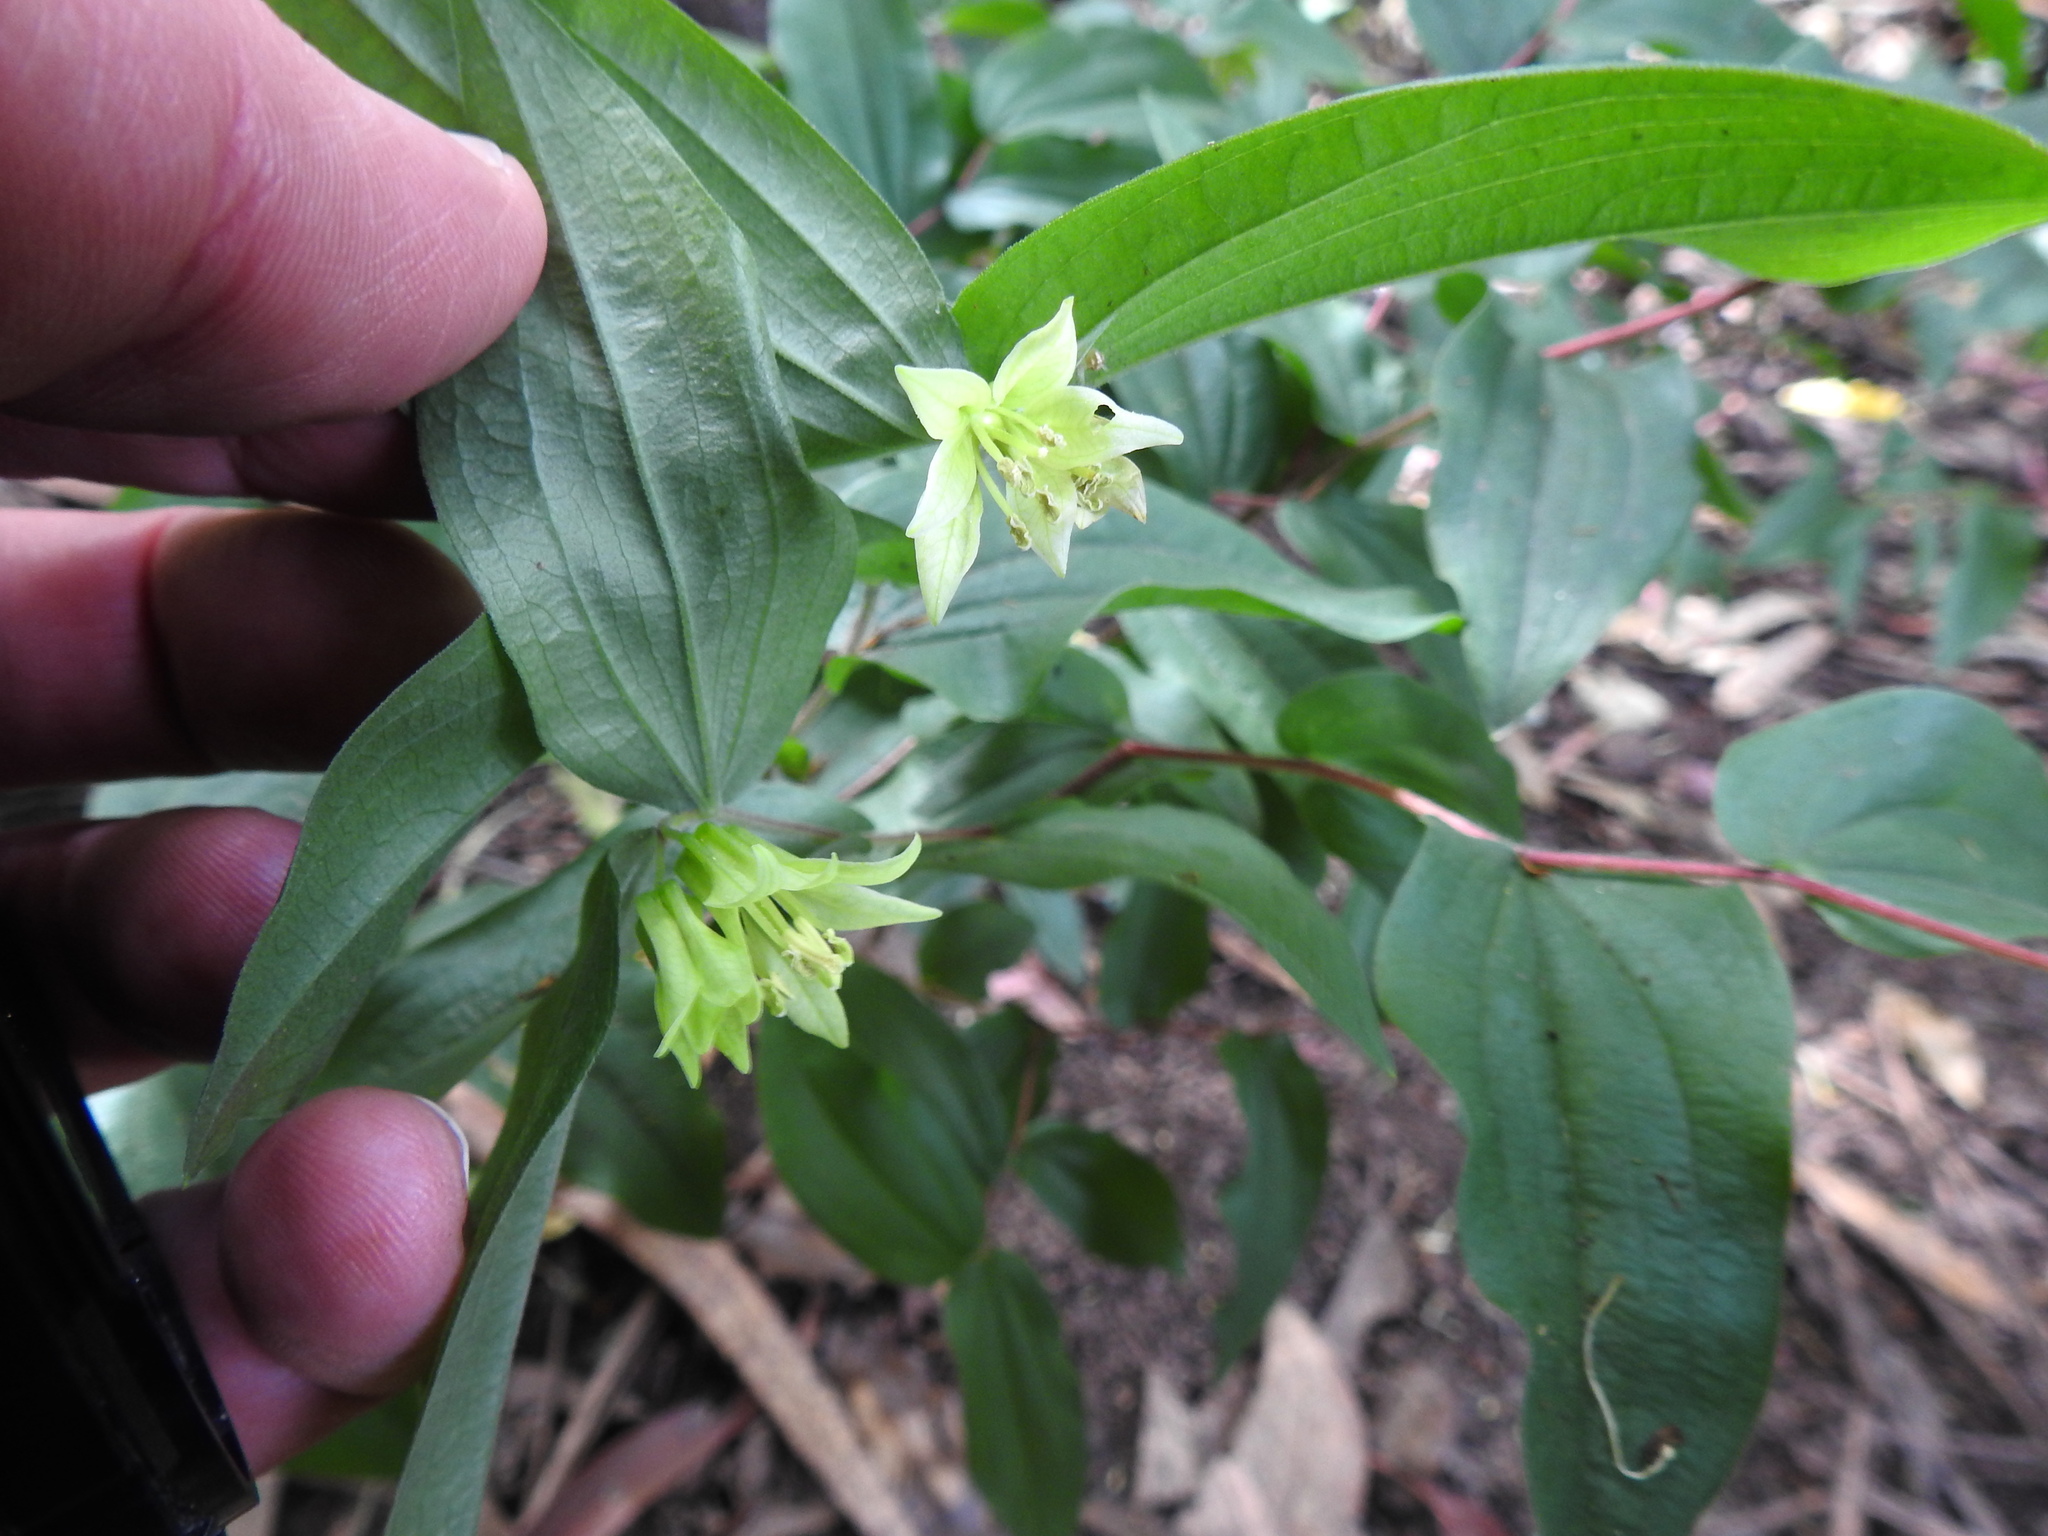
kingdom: Plantae
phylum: Tracheophyta
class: Liliopsida
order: Liliales
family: Liliaceae
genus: Prosartes
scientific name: Prosartes hookeri
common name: Fairy-bells
